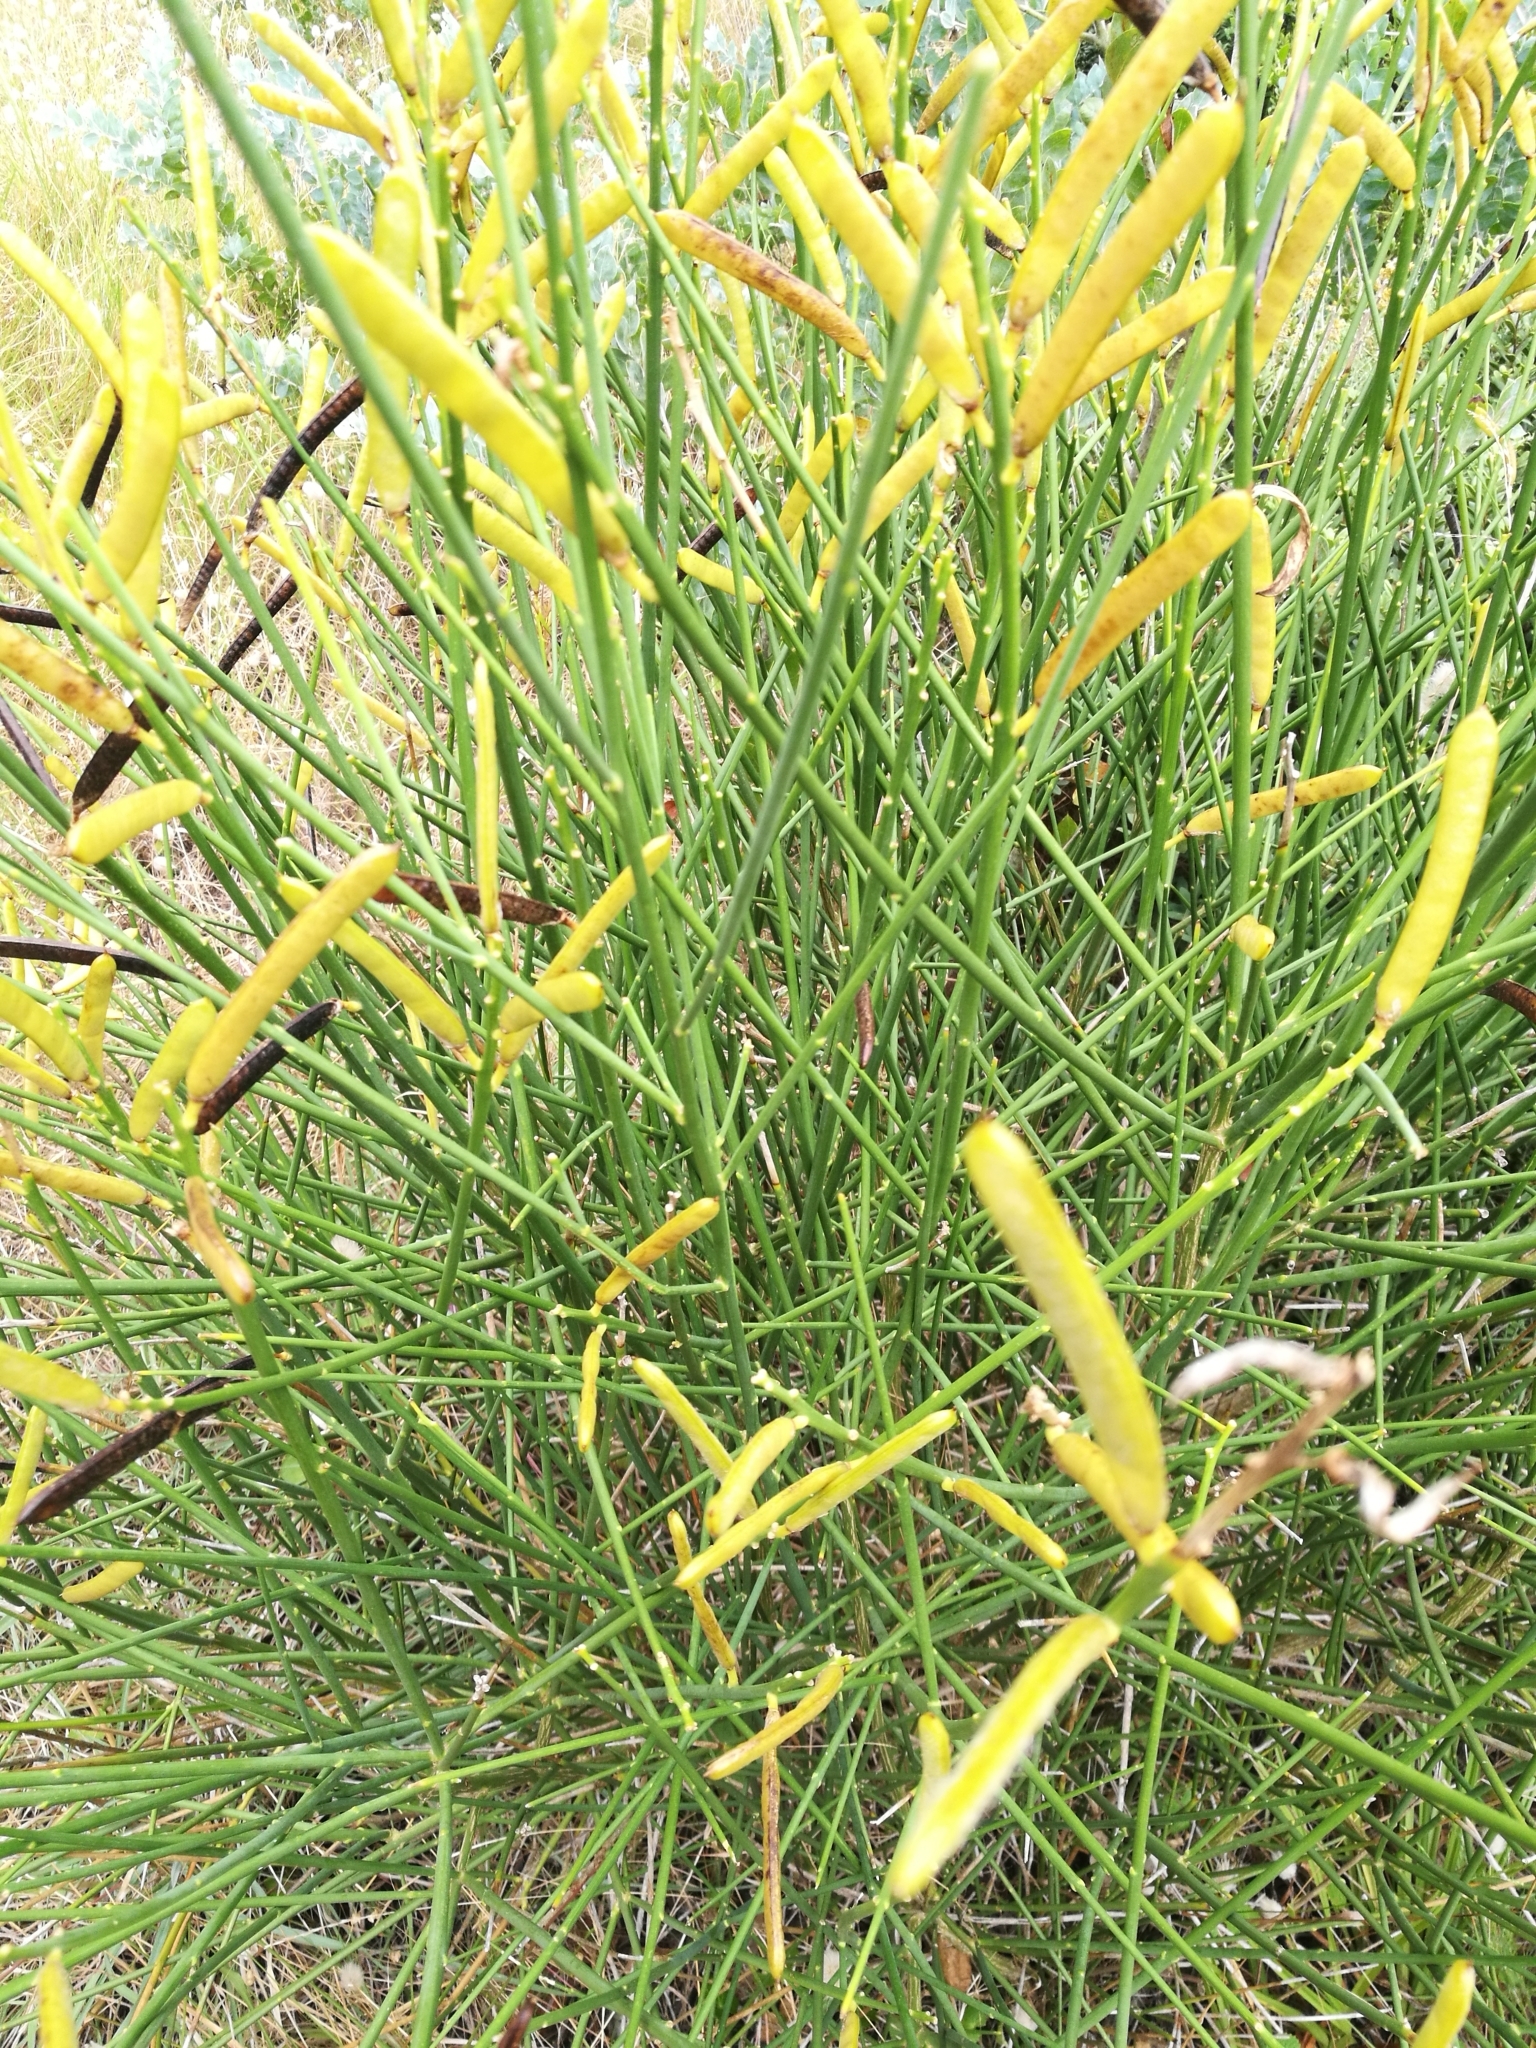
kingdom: Plantae
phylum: Tracheophyta
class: Magnoliopsida
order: Fabales
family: Fabaceae
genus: Spartium
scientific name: Spartium junceum
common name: Spanish broom
